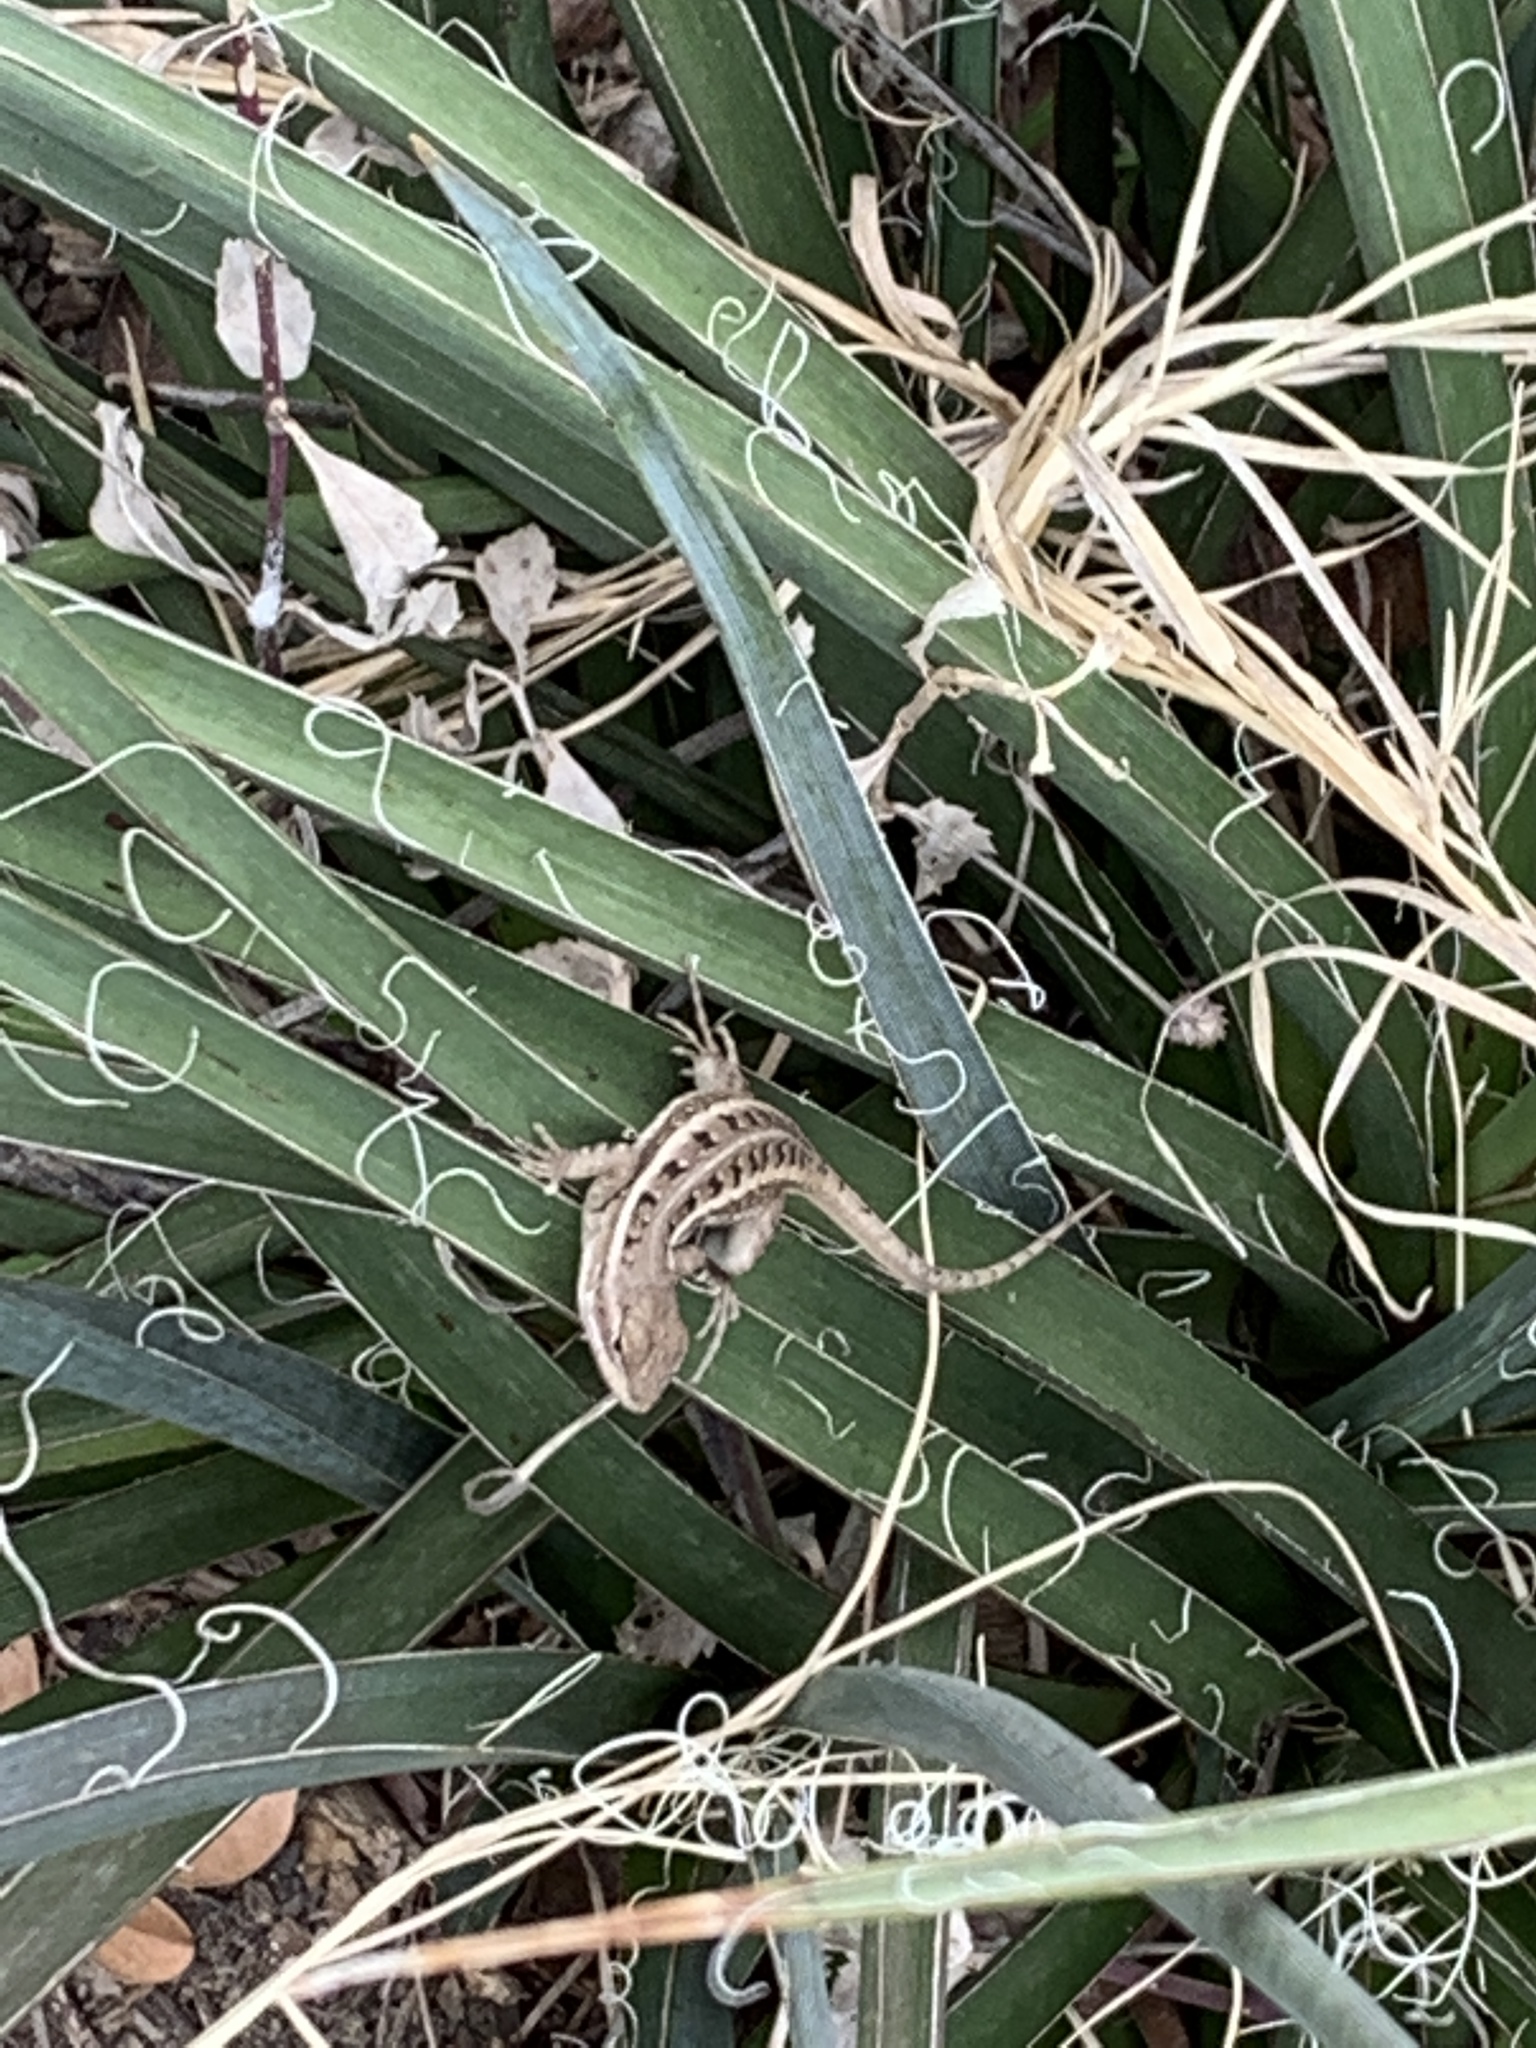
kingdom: Animalia
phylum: Chordata
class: Squamata
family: Phrynosomatidae
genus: Sceloporus
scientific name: Sceloporus variabilis
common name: Rosebelly lizard
